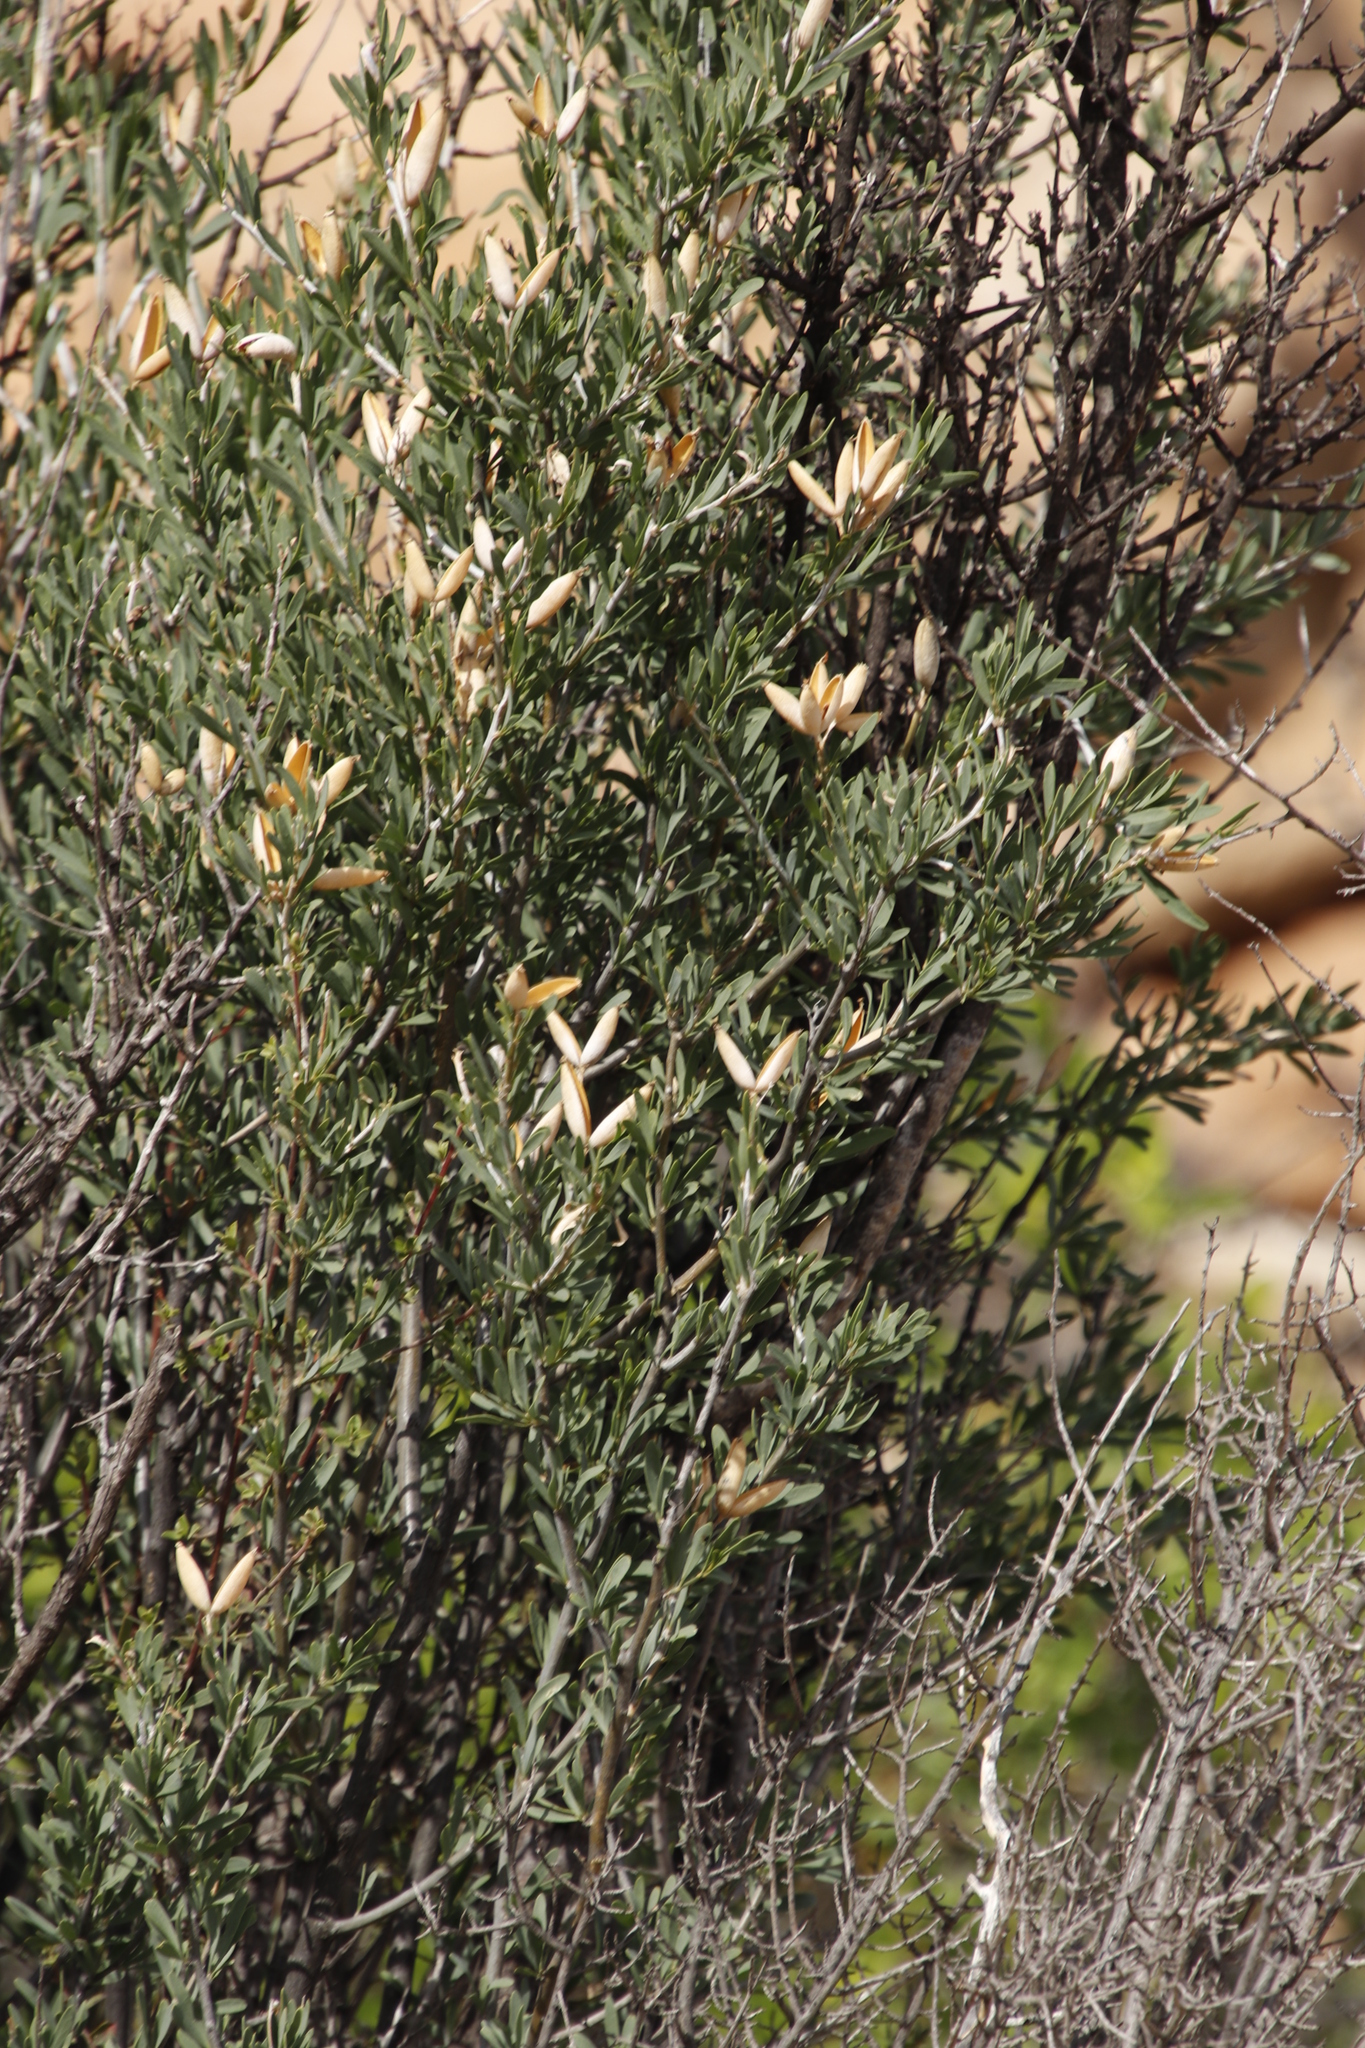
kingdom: Plantae
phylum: Tracheophyta
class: Magnoliopsida
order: Solanales
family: Montiniaceae
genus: Montinia
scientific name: Montinia caryophyllacea
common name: Wild clove-bush
